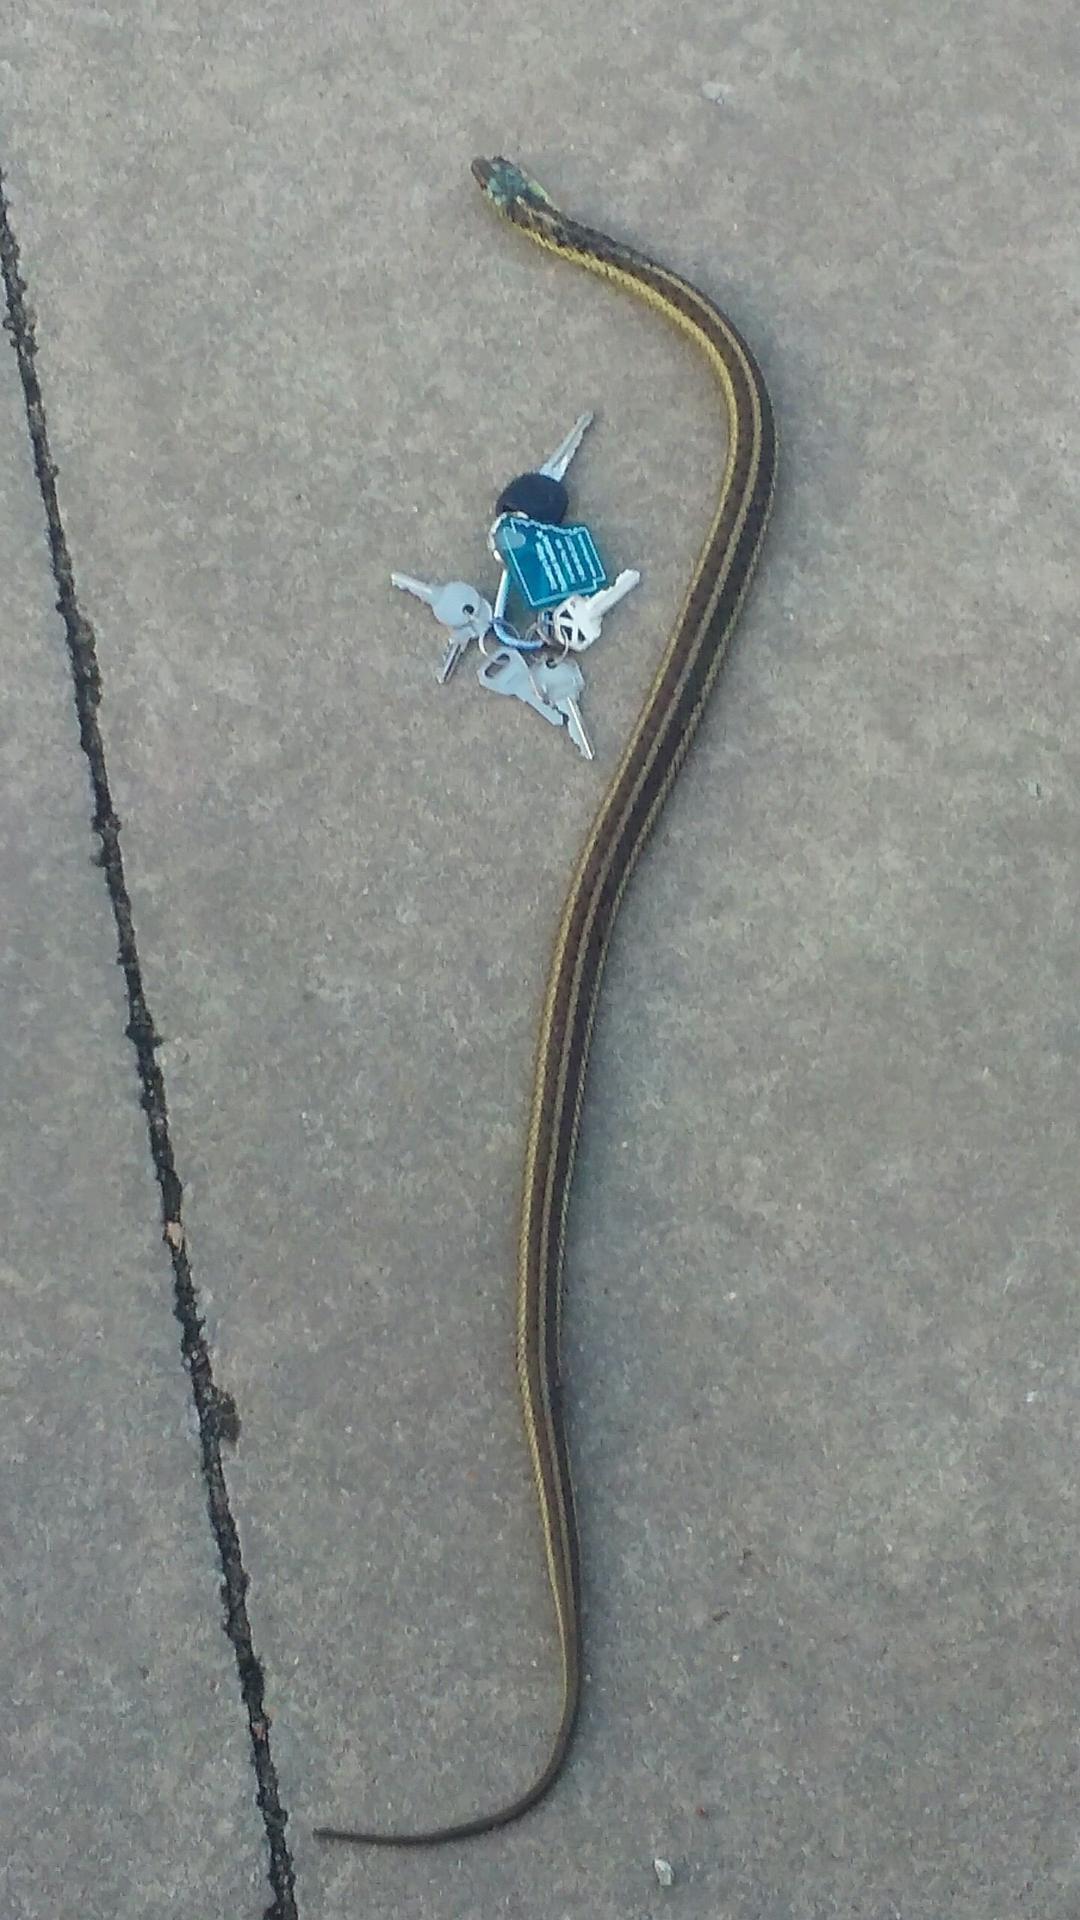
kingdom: Animalia
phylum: Chordata
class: Squamata
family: Colubridae
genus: Thamnophis
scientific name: Thamnophis sirtalis
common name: Common garter snake
